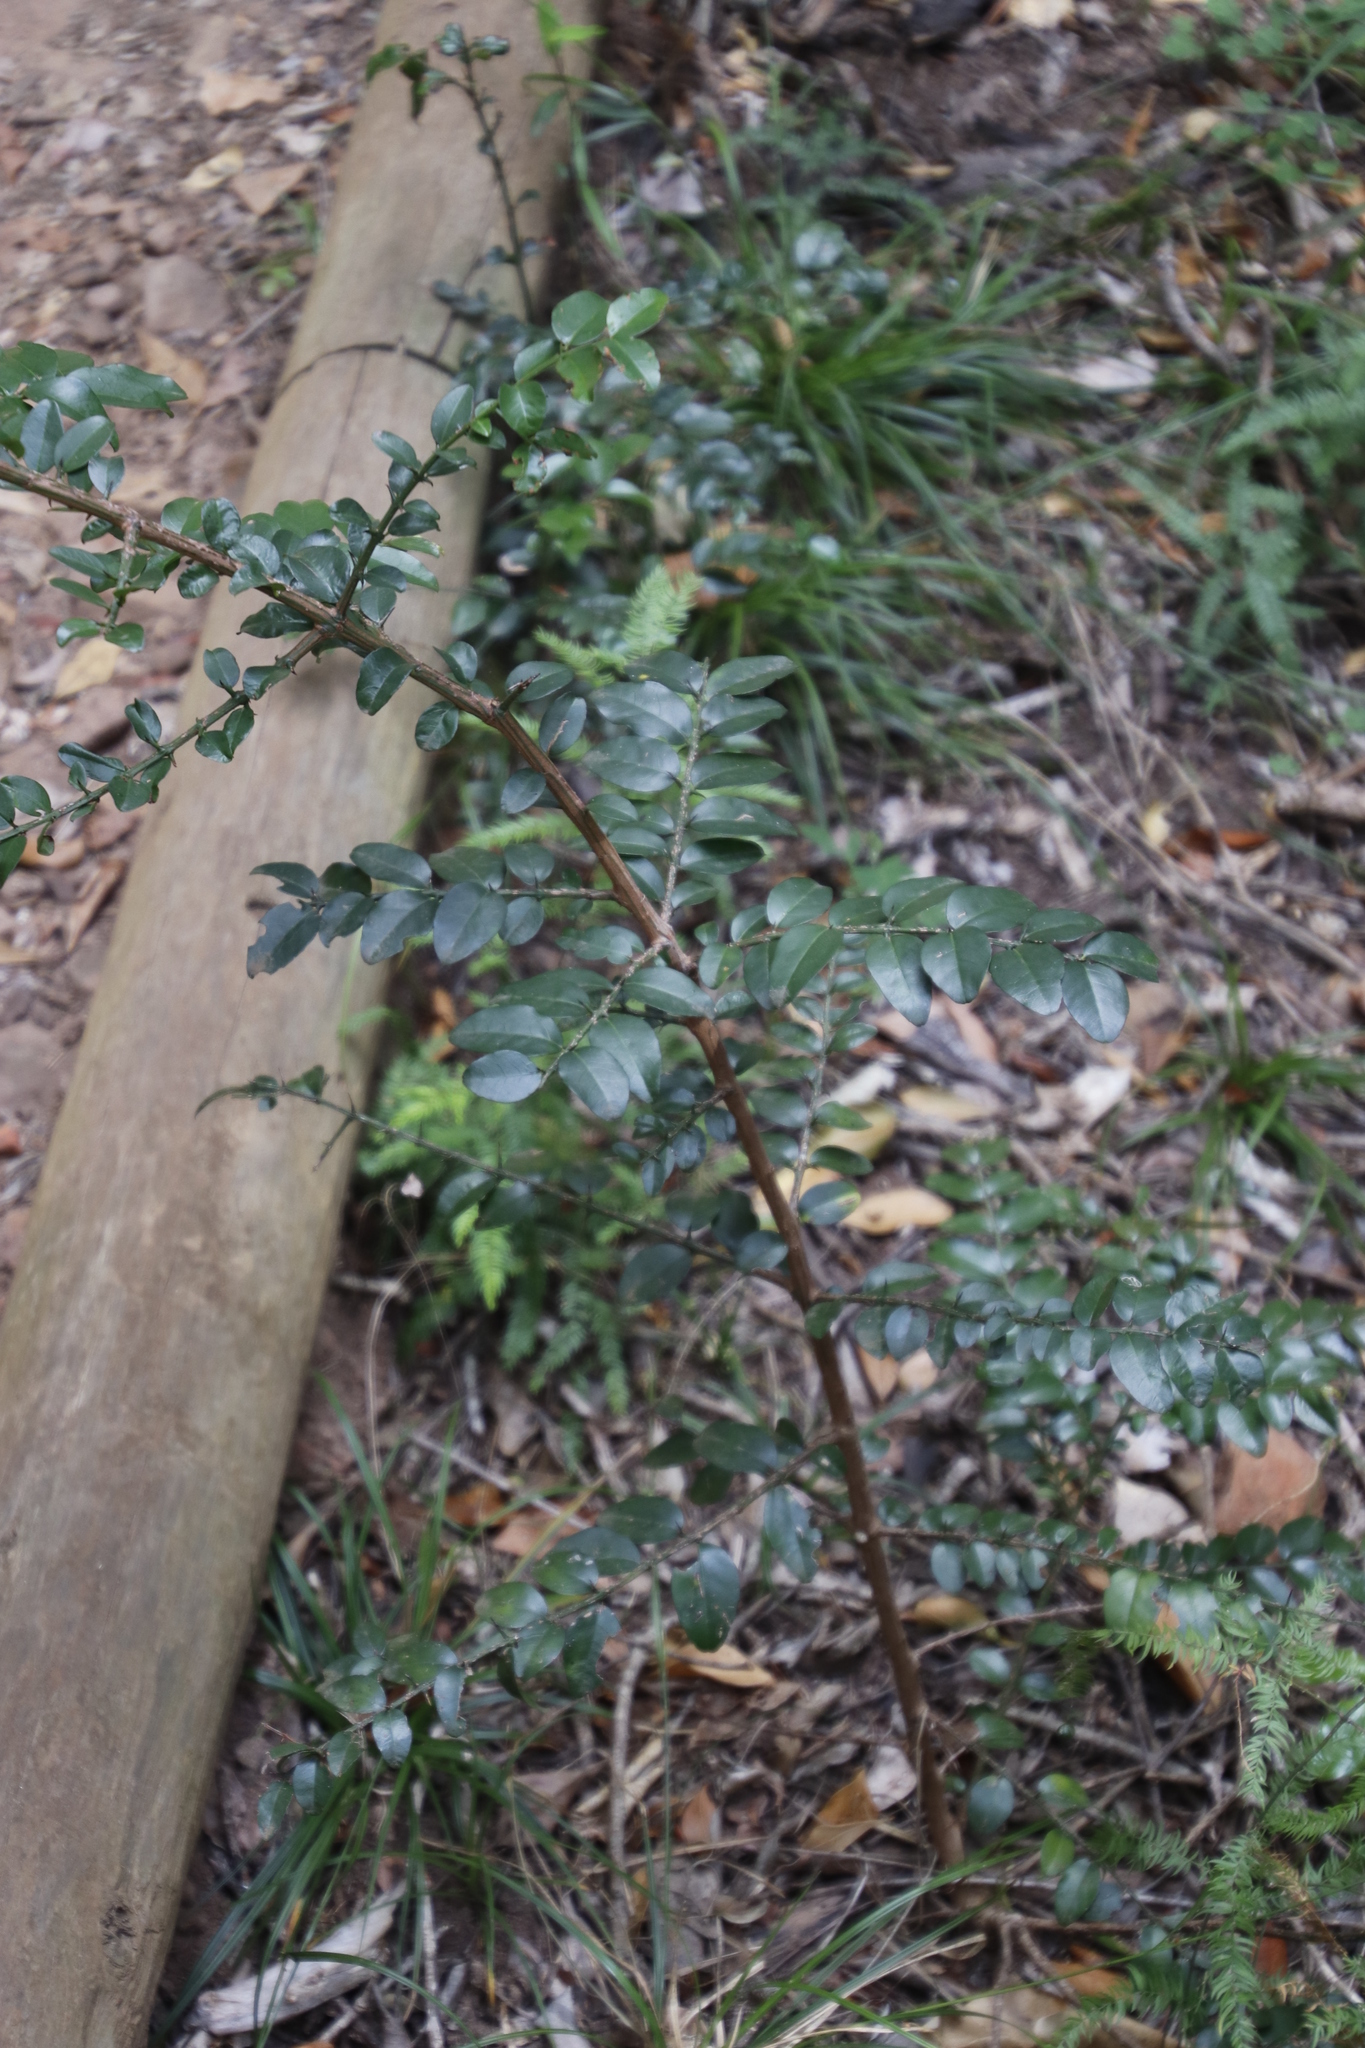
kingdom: Plantae
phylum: Tracheophyta
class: Magnoliopsida
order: Rosales
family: Rhamnaceae
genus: Scutia
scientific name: Scutia myrtina
